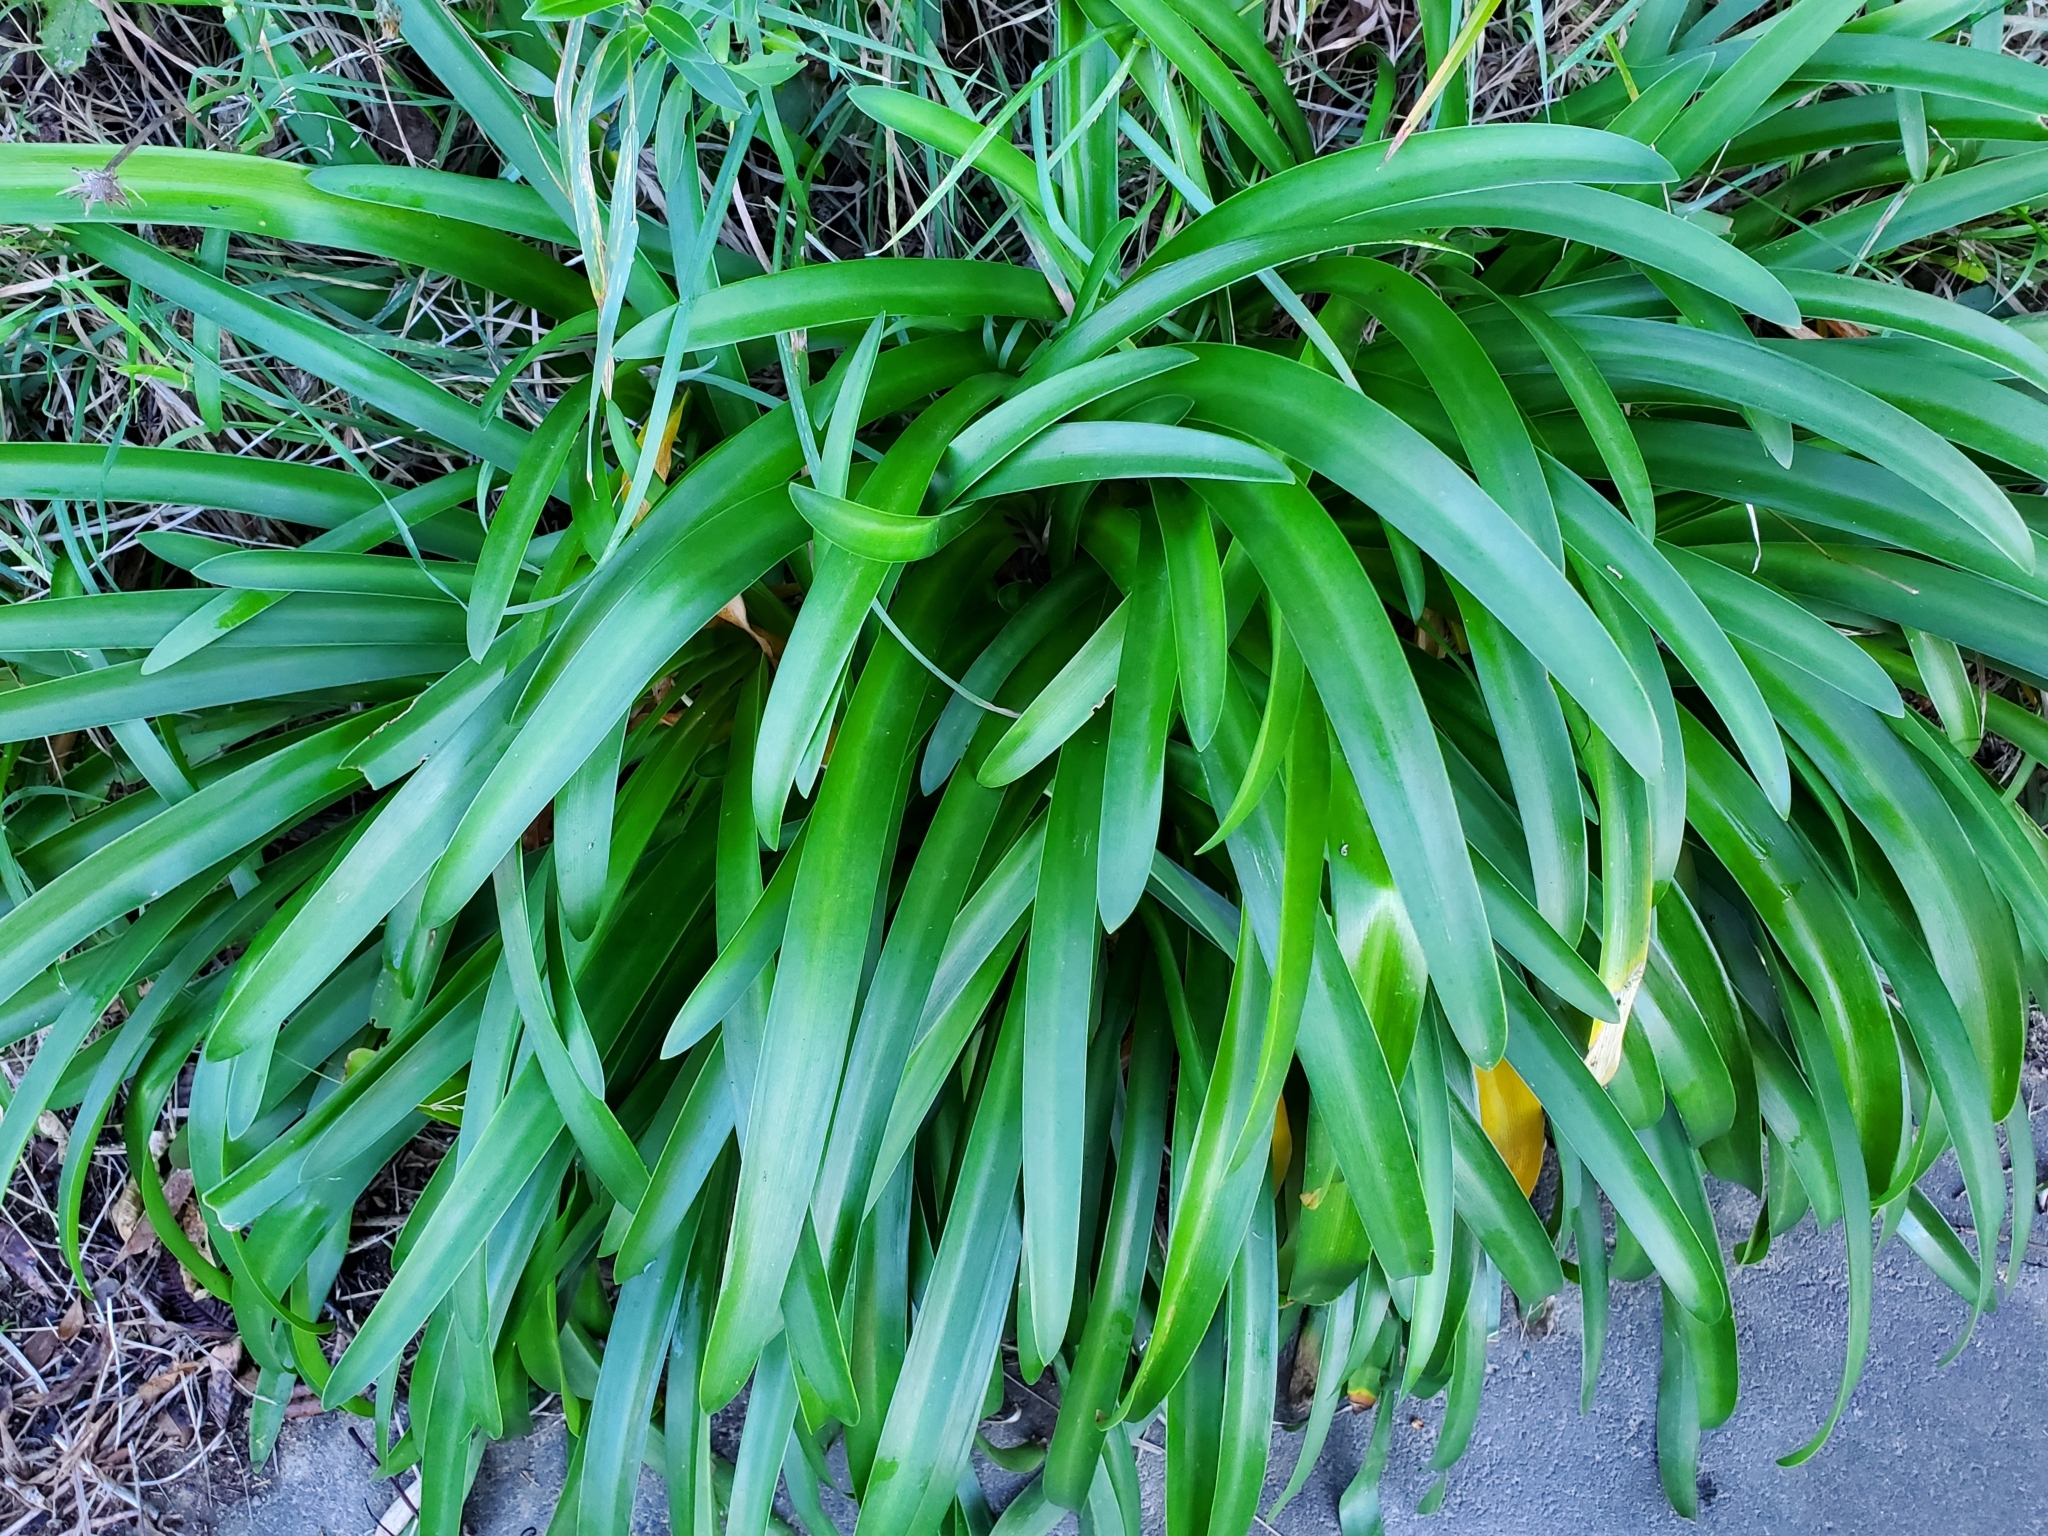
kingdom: Plantae
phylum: Tracheophyta
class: Liliopsida
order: Asparagales
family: Amaryllidaceae
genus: Agapanthus
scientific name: Agapanthus praecox
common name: African-lily
